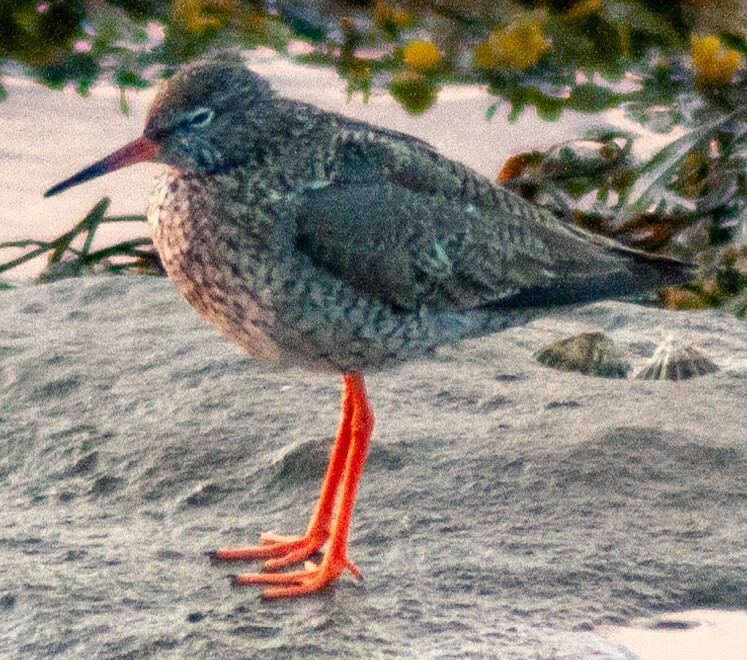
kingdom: Animalia
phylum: Chordata
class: Aves
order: Charadriiformes
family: Scolopacidae
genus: Tringa
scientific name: Tringa totanus
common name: Common redshank
